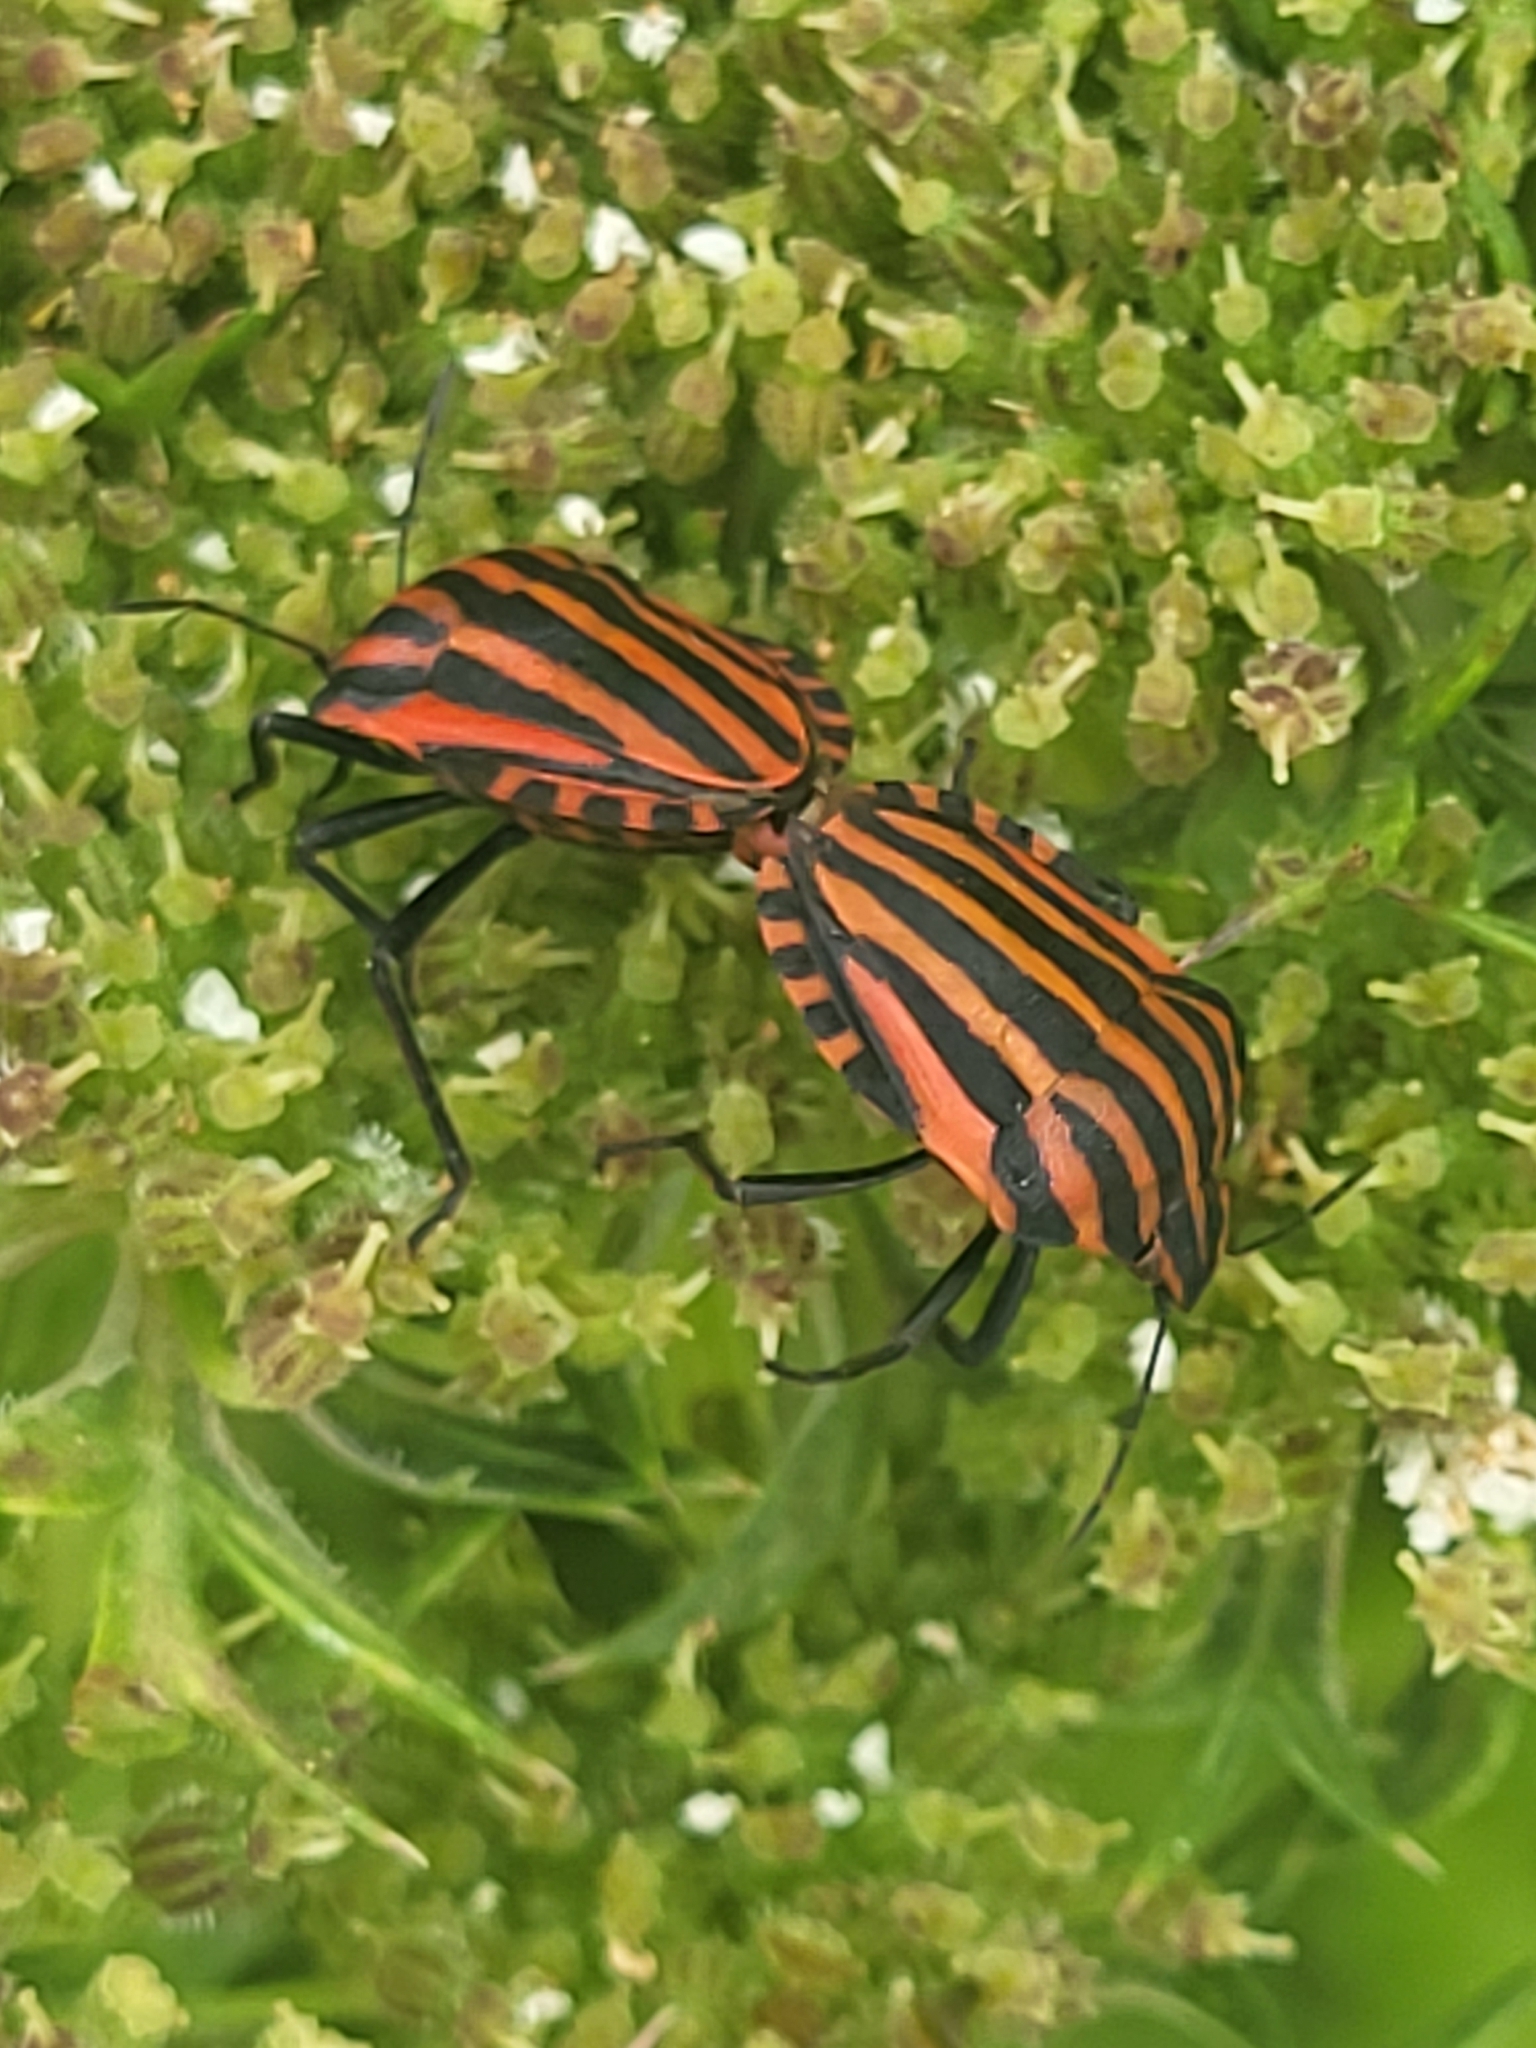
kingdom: Animalia
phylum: Arthropoda
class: Insecta
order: Hemiptera
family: Pentatomidae
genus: Graphosoma
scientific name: Graphosoma italicum
